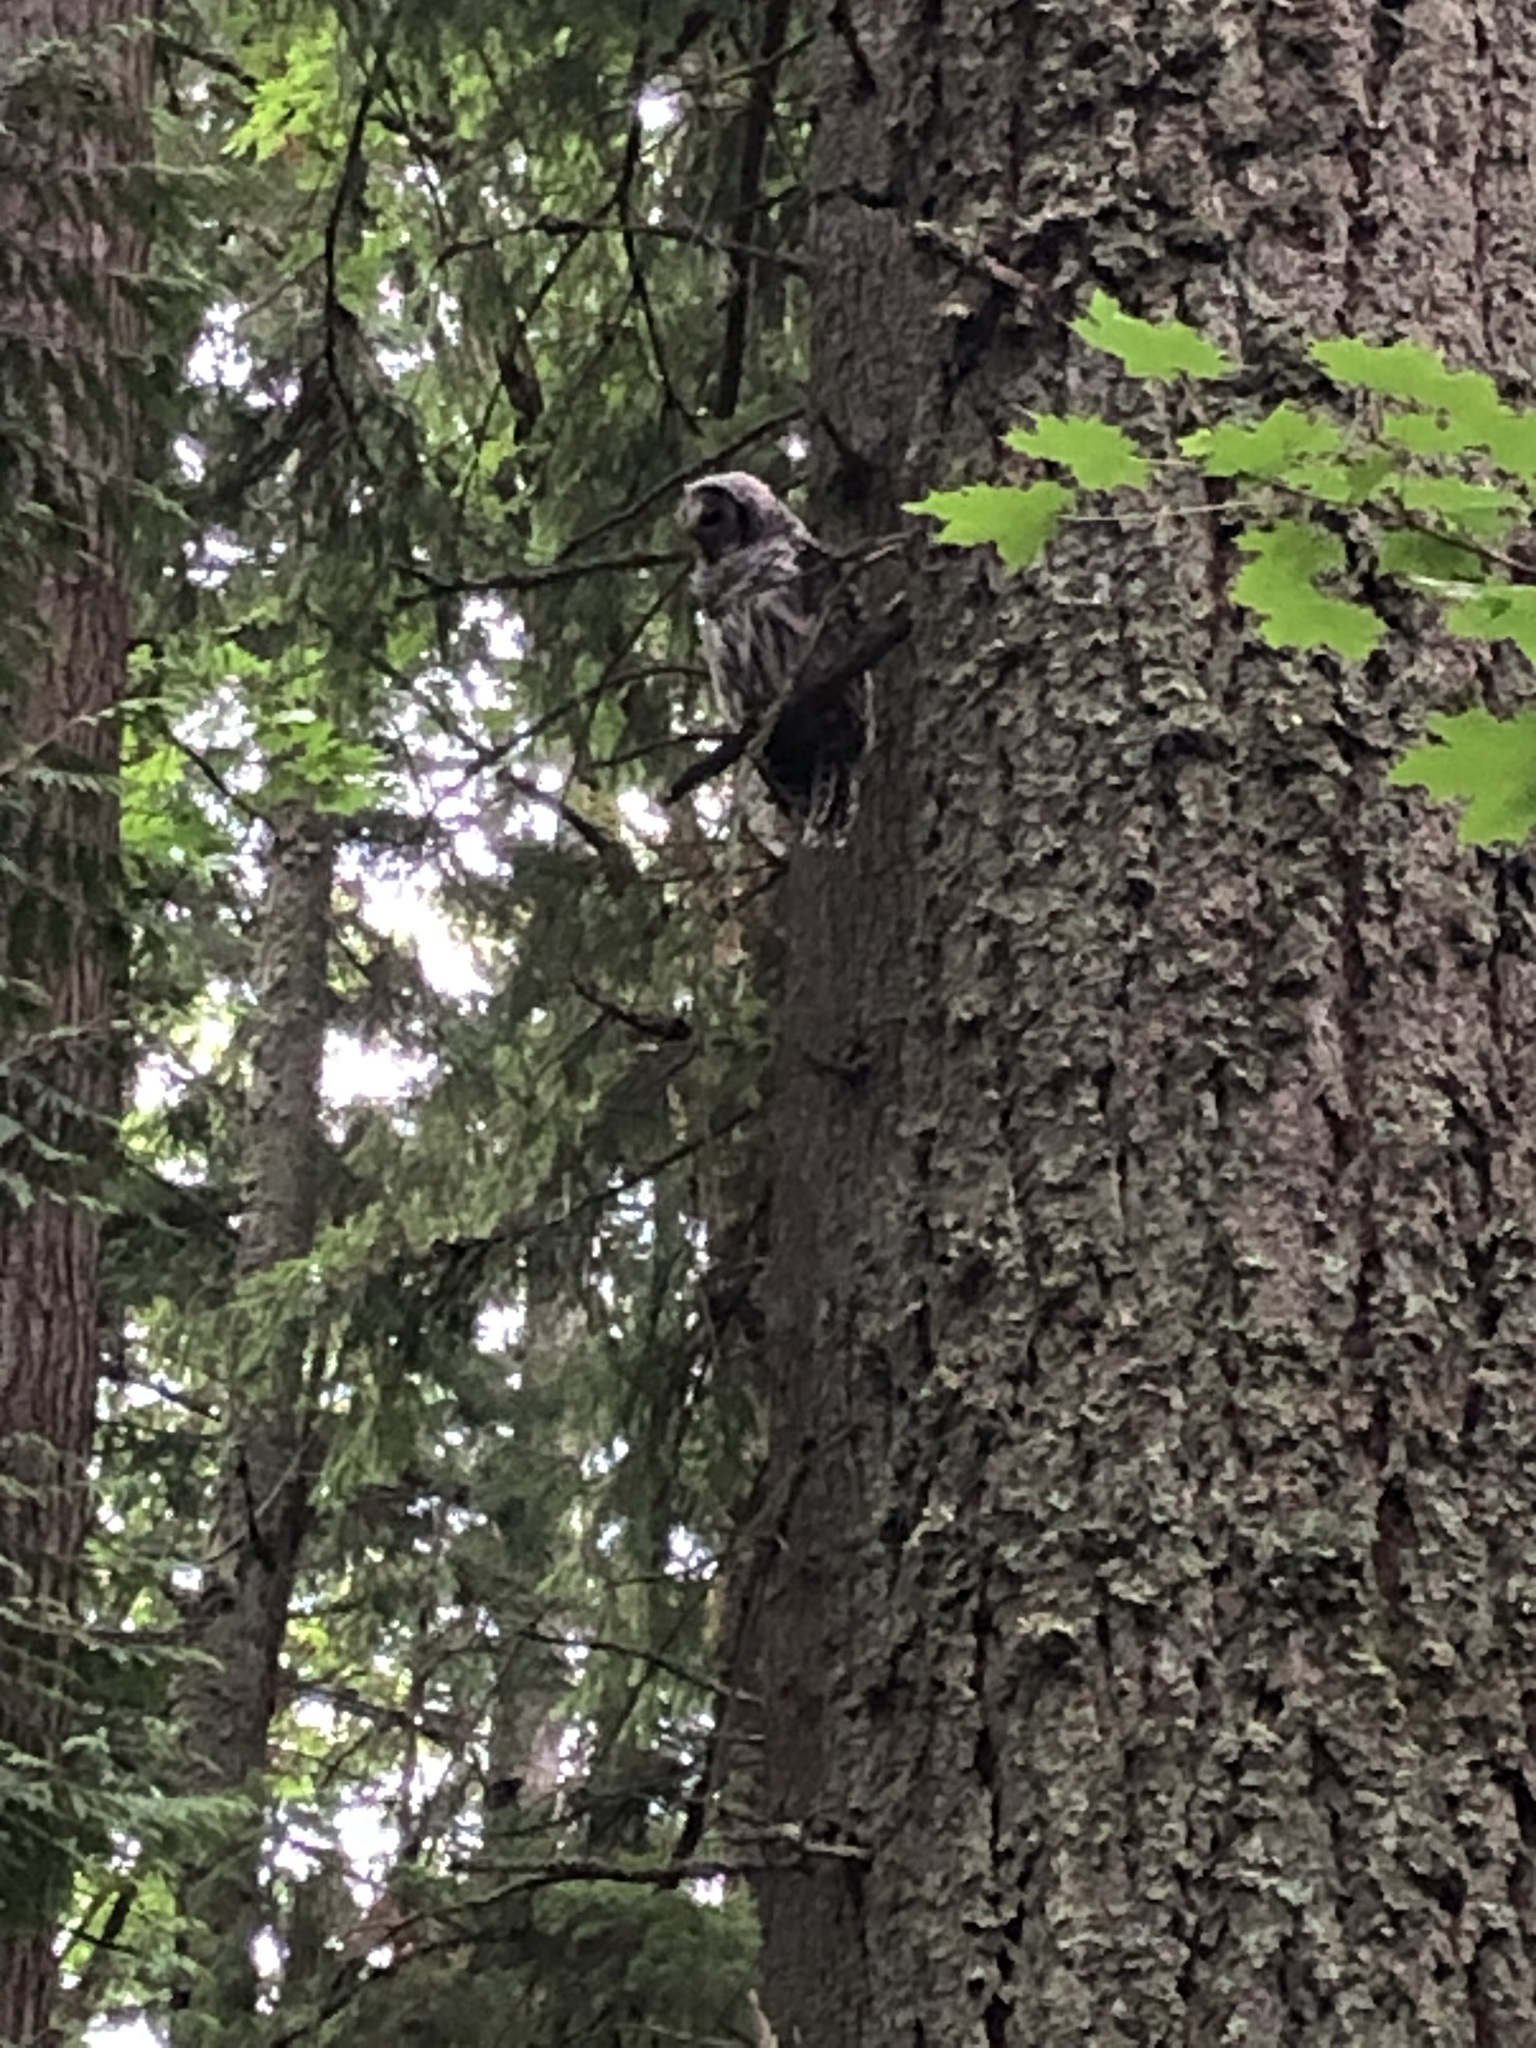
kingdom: Animalia
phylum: Chordata
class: Aves
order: Strigiformes
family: Strigidae
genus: Strix
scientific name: Strix varia
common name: Barred owl
